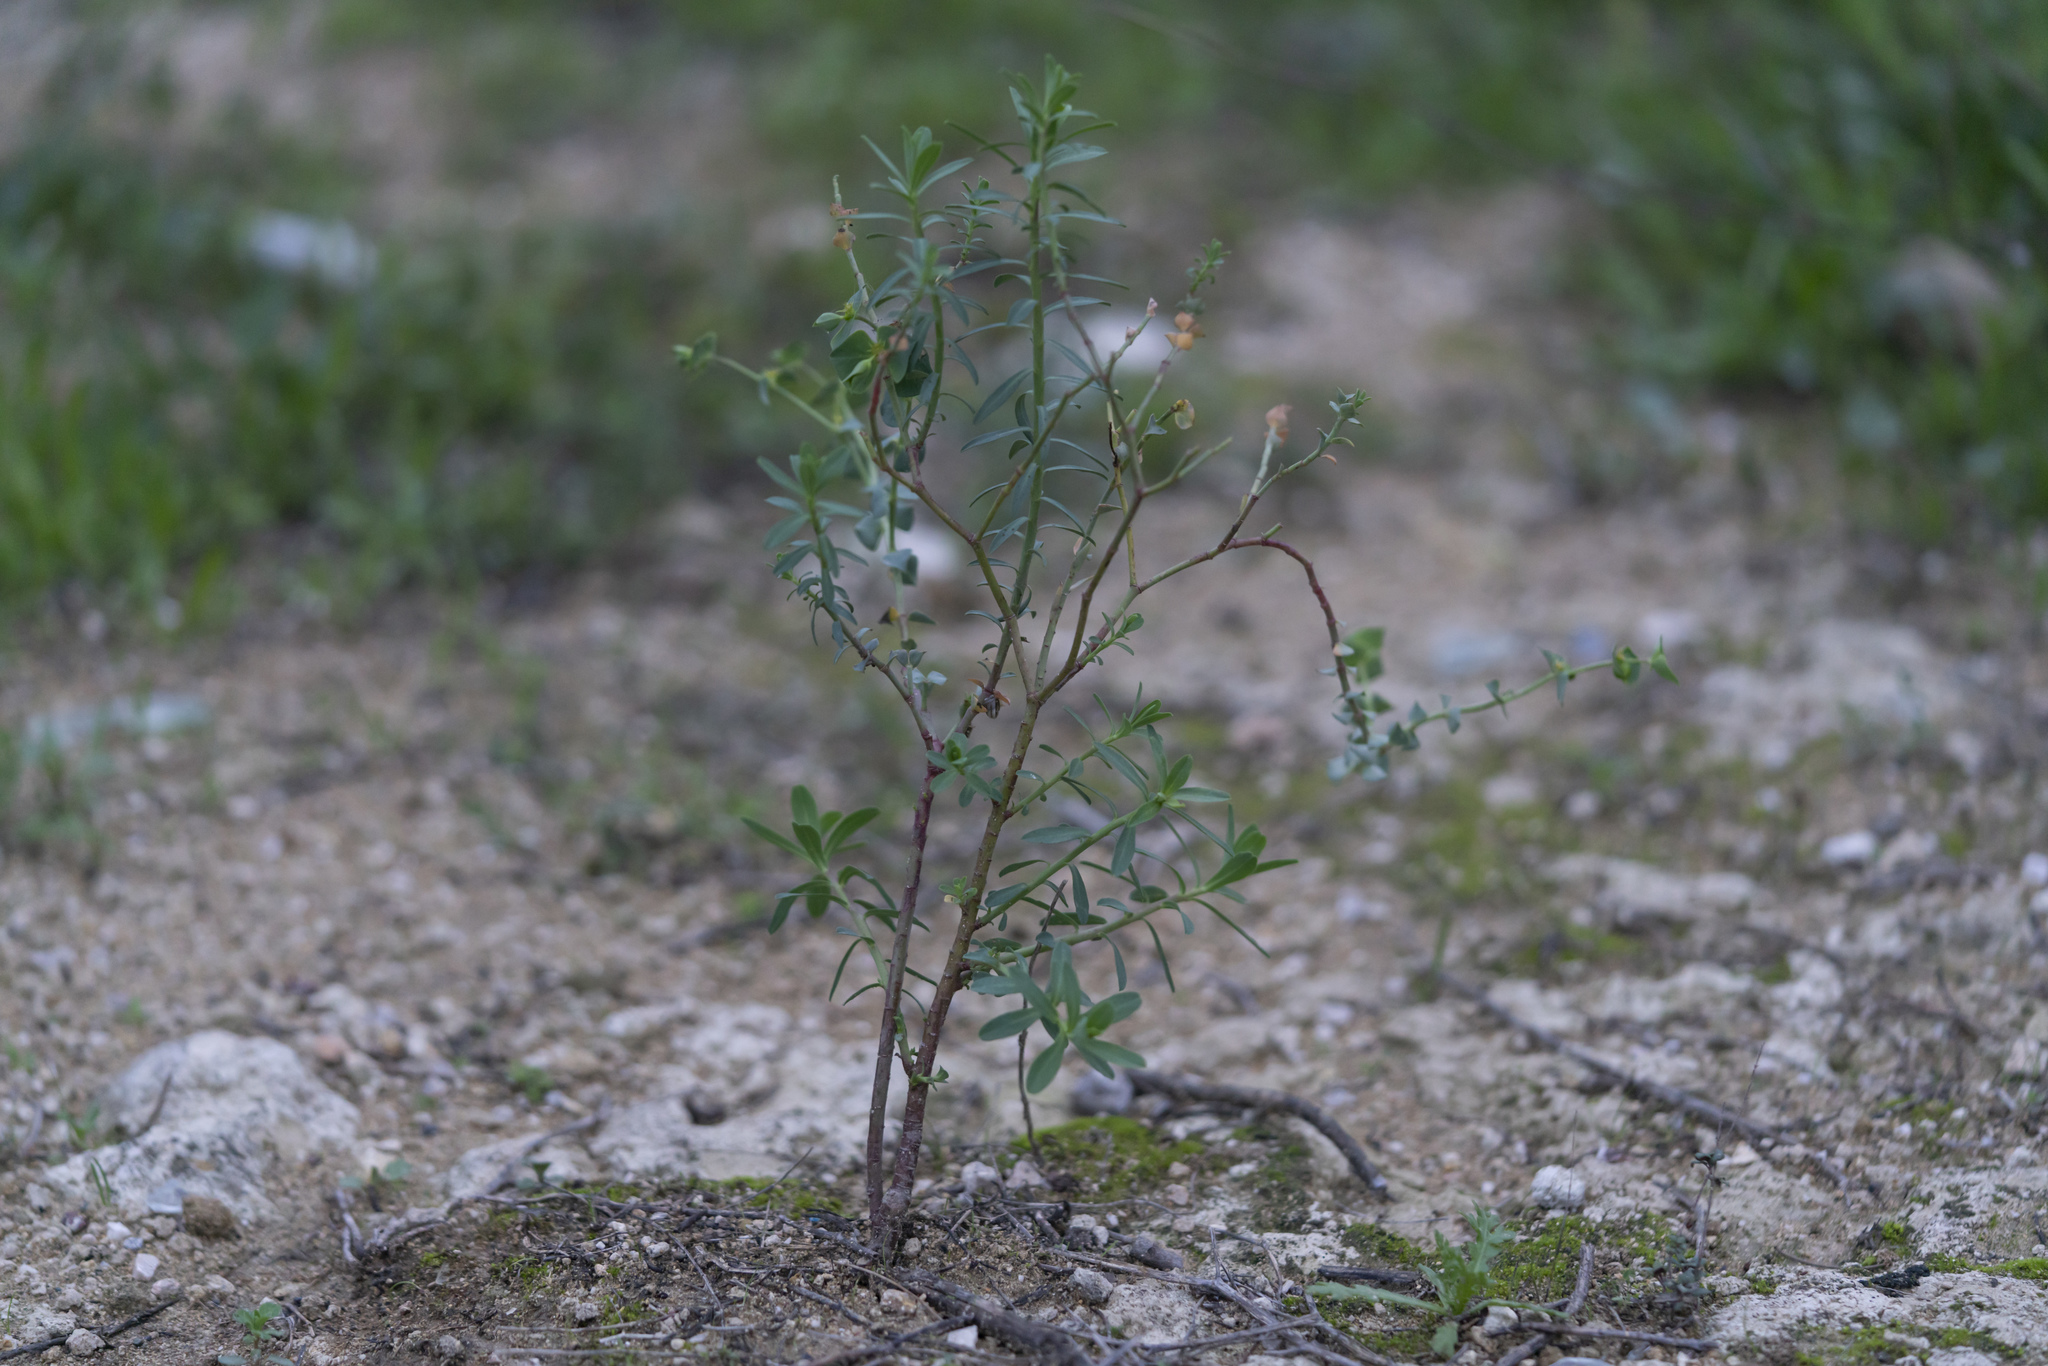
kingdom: Plantae
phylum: Tracheophyta
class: Magnoliopsida
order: Malpighiales
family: Euphorbiaceae
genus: Euphorbia
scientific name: Euphorbia terracina
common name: Geraldton carnation weed
